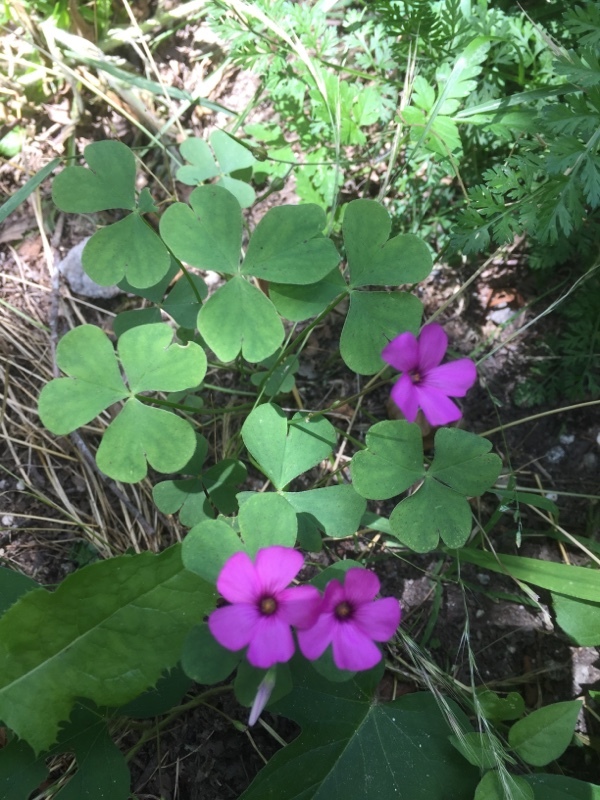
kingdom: Plantae
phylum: Tracheophyta
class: Magnoliopsida
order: Oxalidales
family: Oxalidaceae
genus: Oxalis
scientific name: Oxalis articulata
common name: Pink-sorrel
